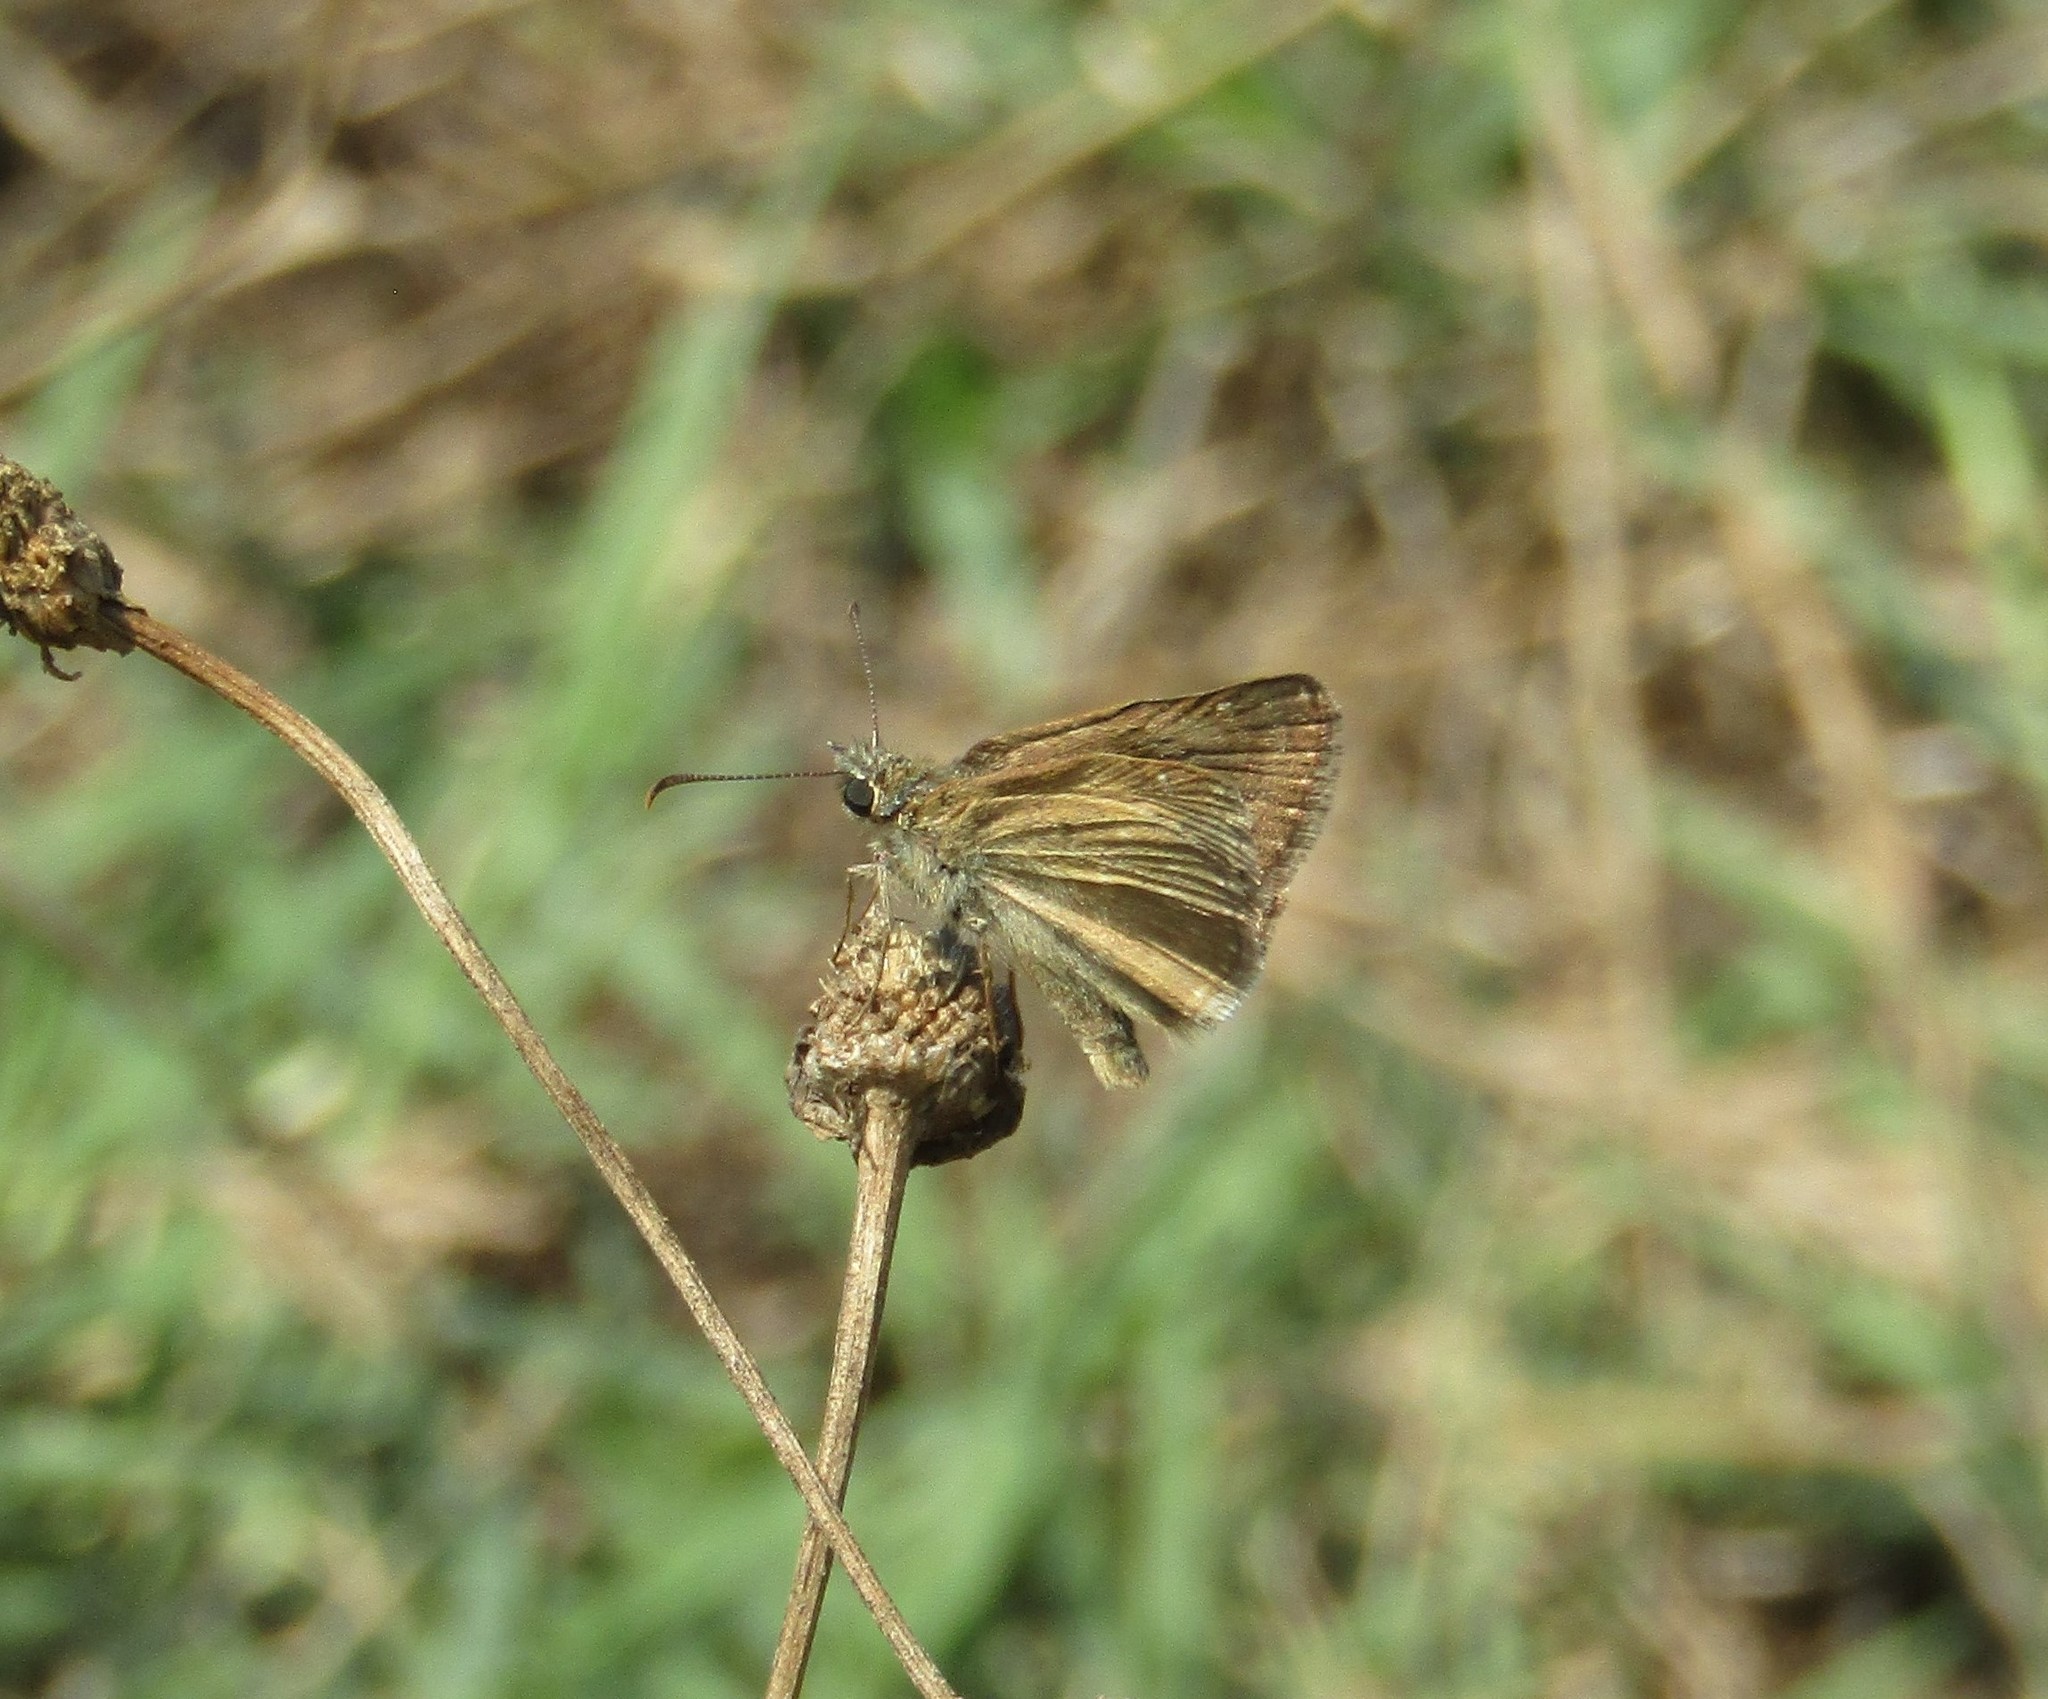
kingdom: Animalia
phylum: Arthropoda
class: Insecta
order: Lepidoptera
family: Hesperiidae
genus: Erynnis
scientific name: Erynnis tages
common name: Dingy skipper
